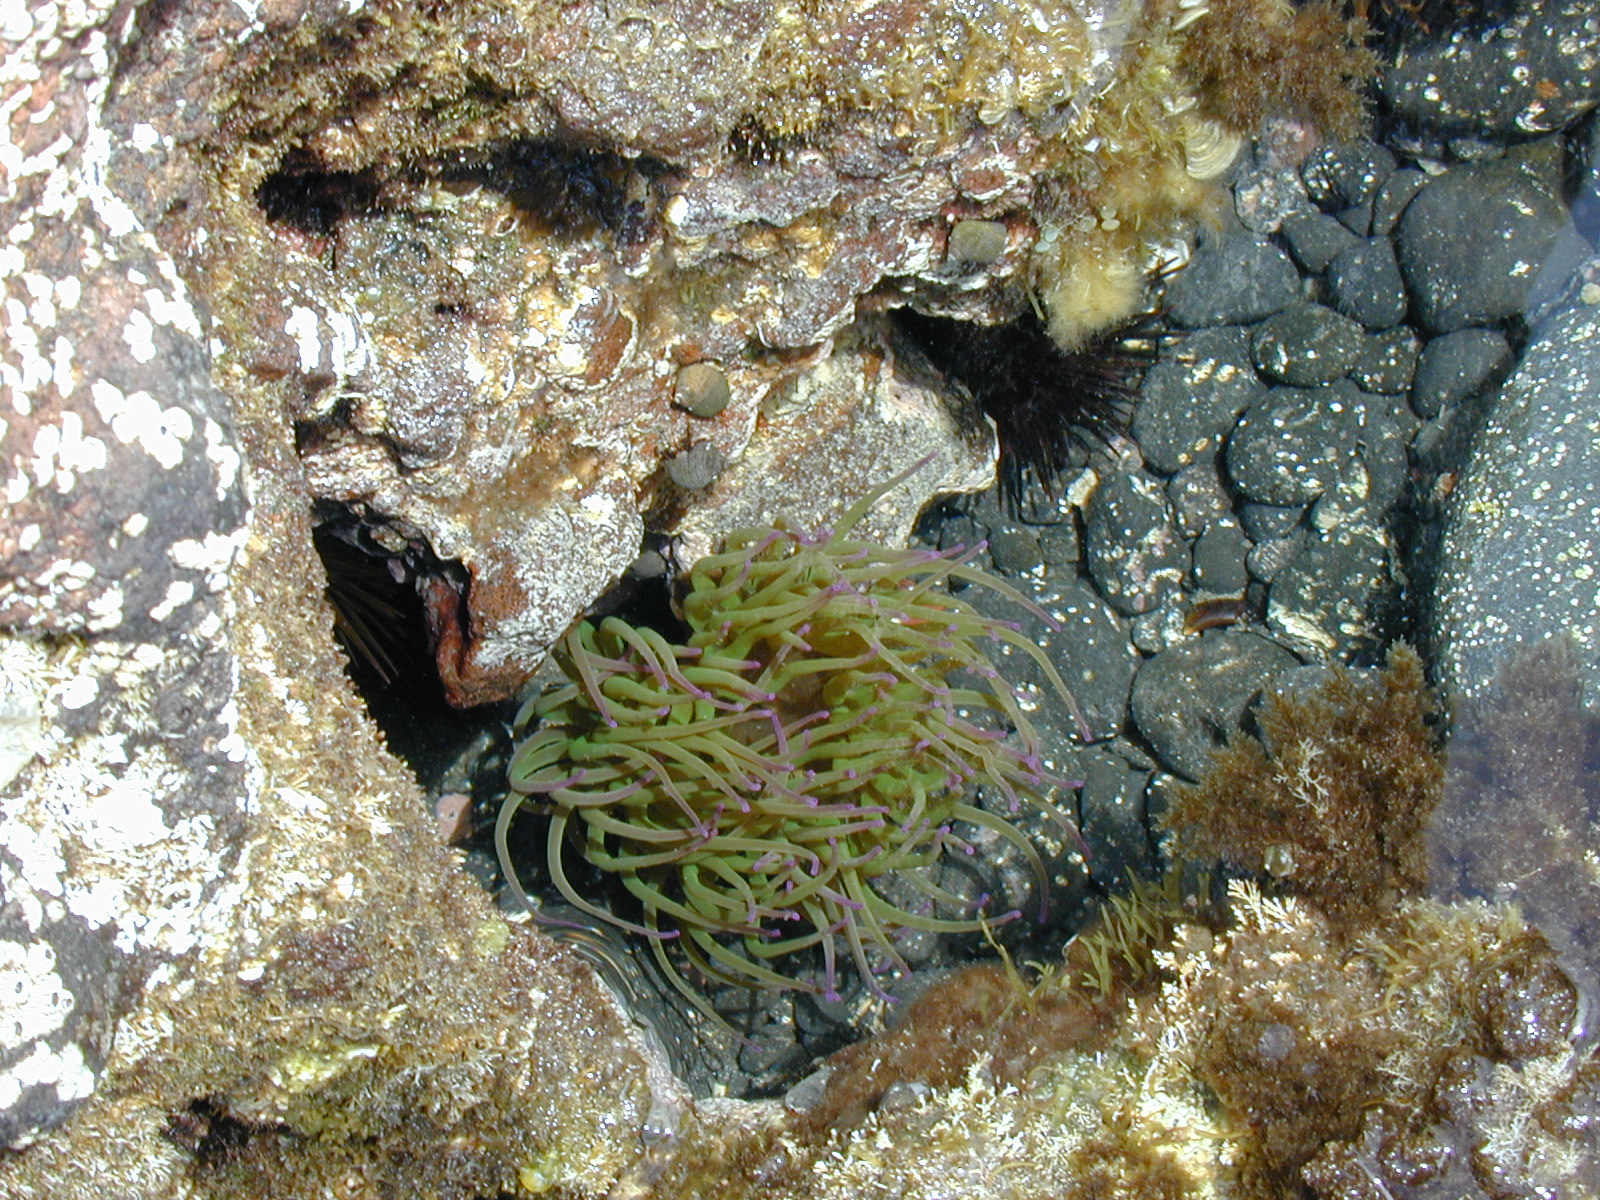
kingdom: Animalia
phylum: Cnidaria
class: Anthozoa
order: Actiniaria
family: Actiniidae
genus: Anemonia
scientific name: Anemonia viridis
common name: Snakelocks anemone
